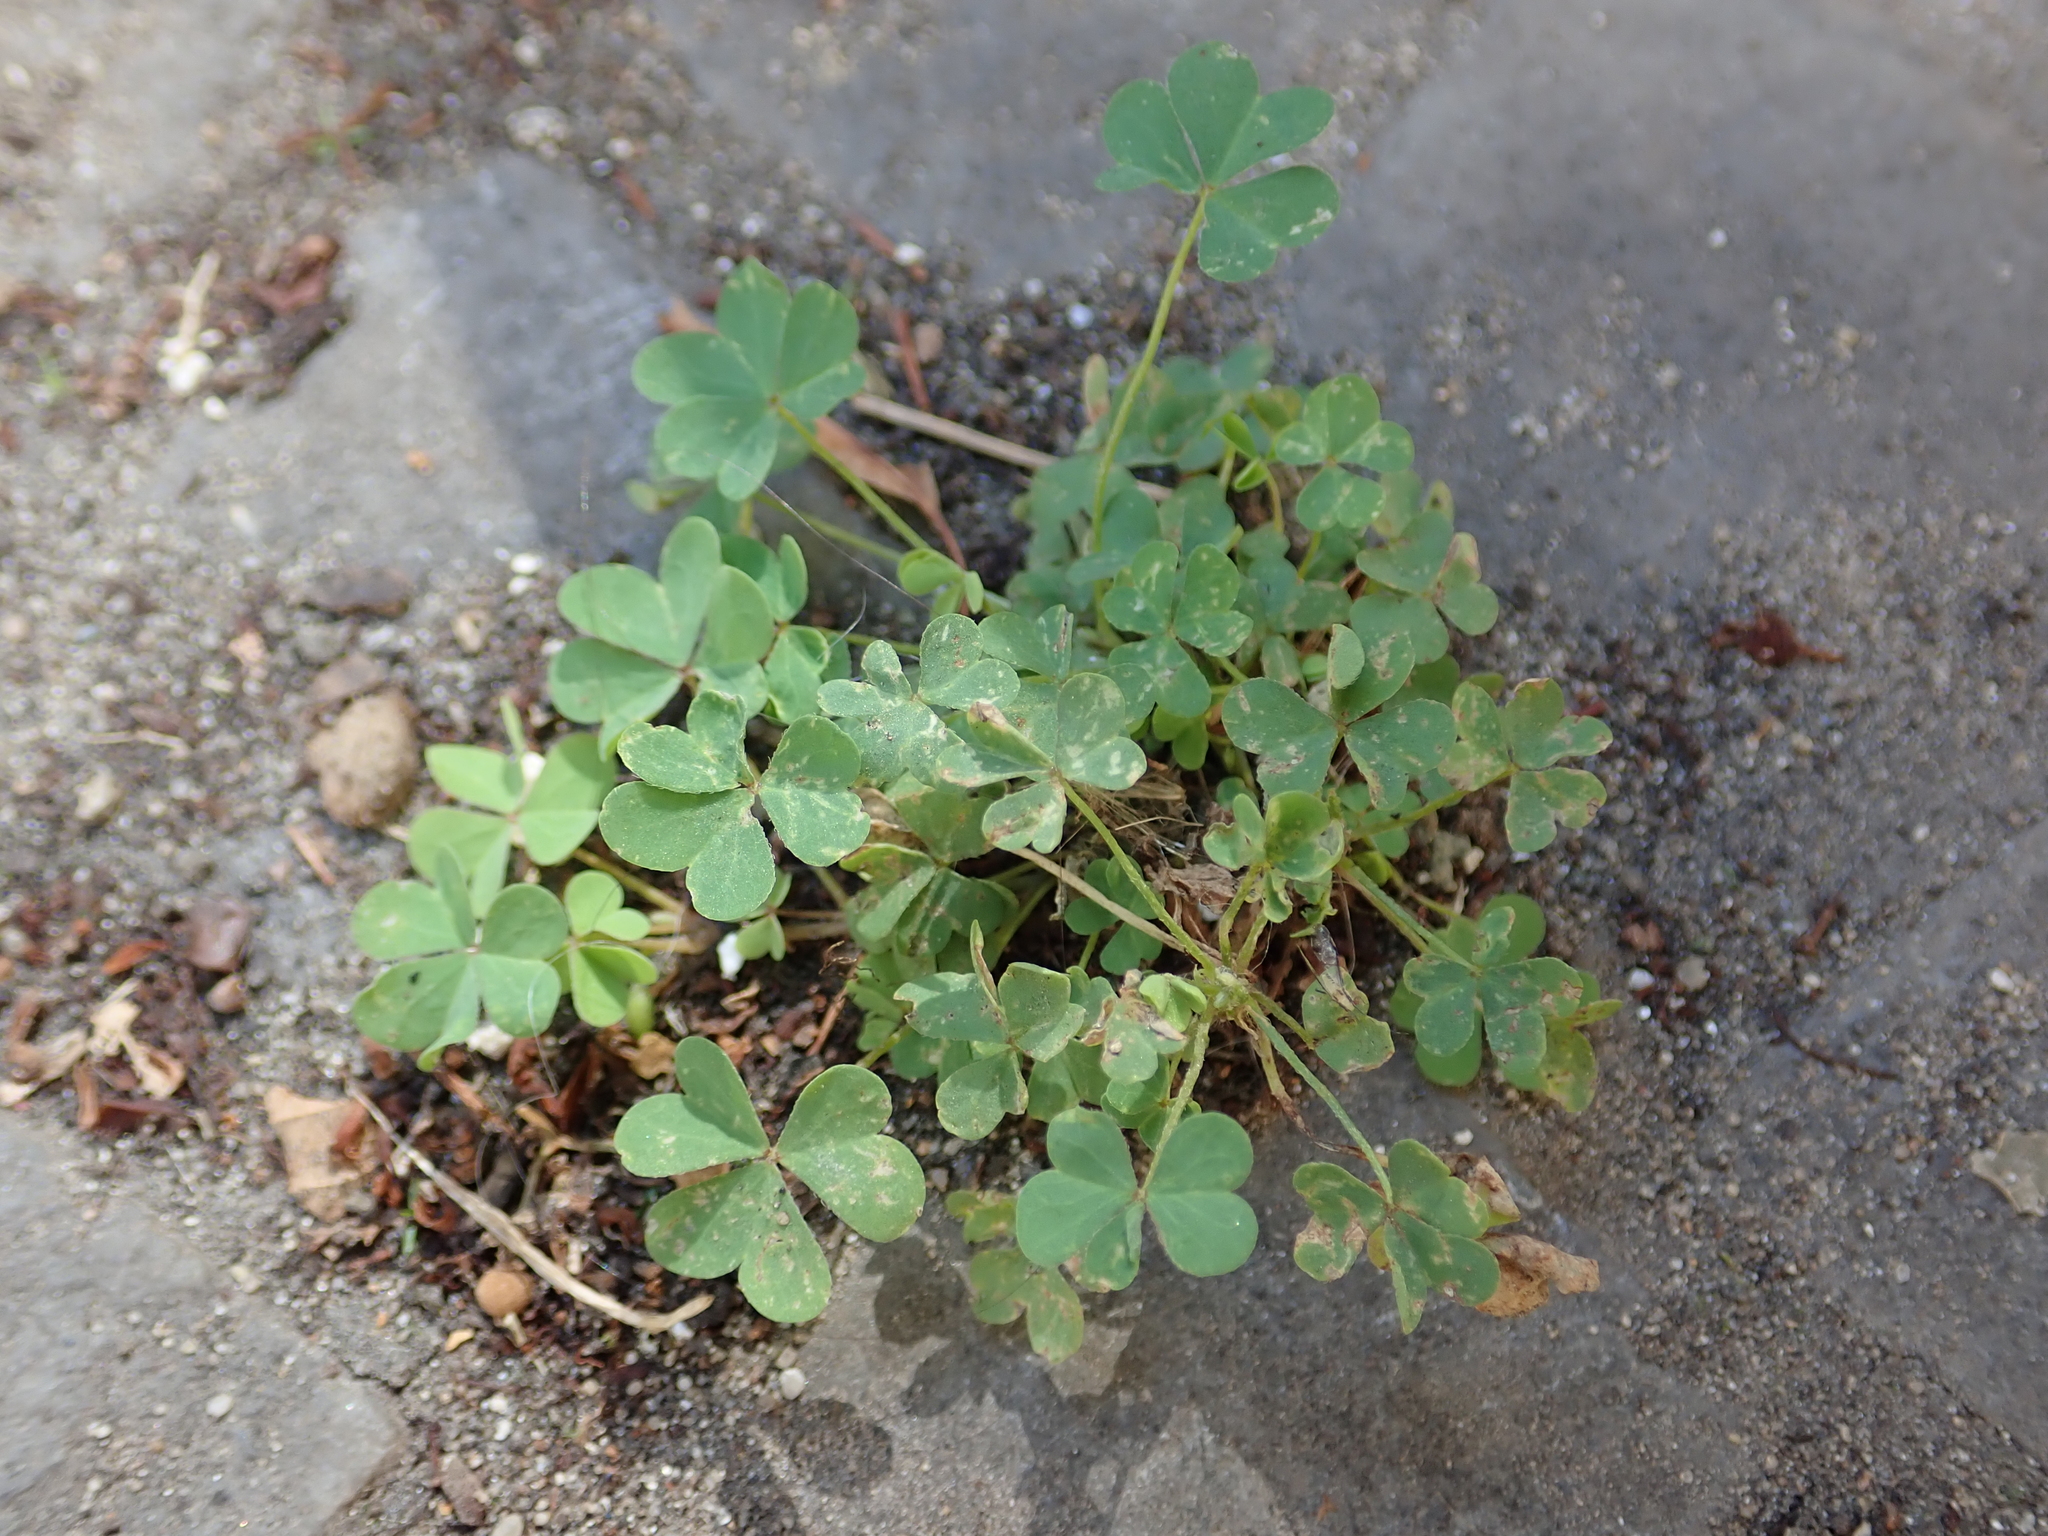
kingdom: Plantae
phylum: Tracheophyta
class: Magnoliopsida
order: Oxalidales
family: Oxalidaceae
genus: Oxalis
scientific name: Oxalis corniculata
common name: Procumbent yellow-sorrel
